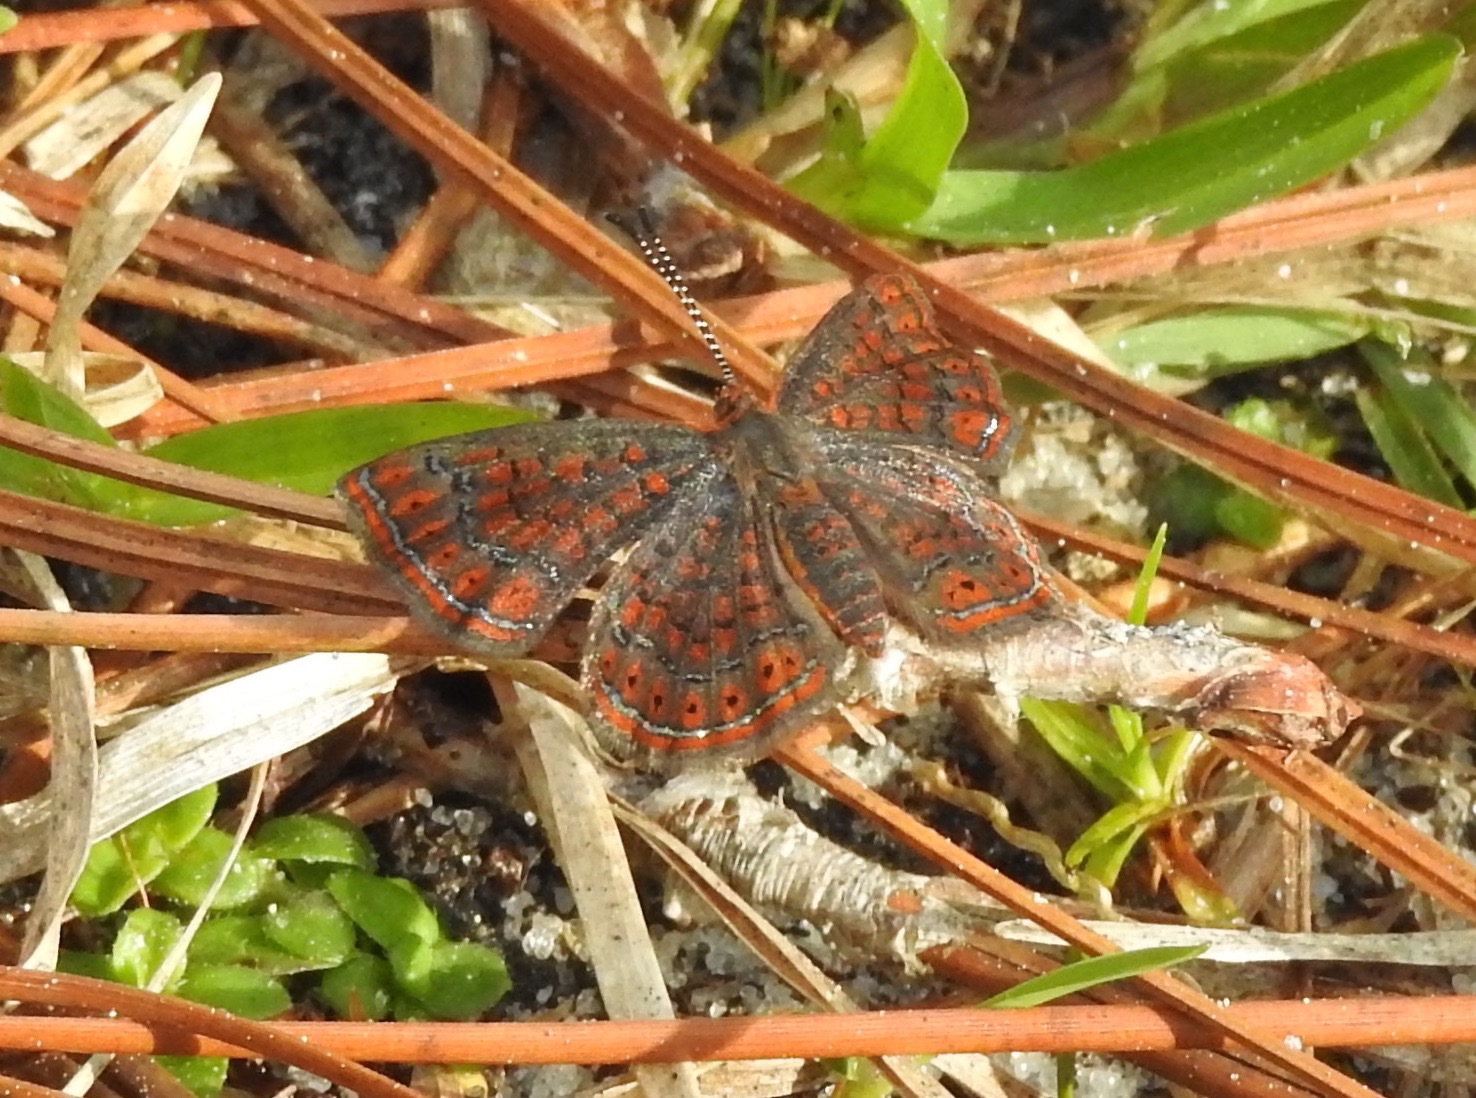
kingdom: Animalia
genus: Calephelis
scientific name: Calephelis virginiensis
